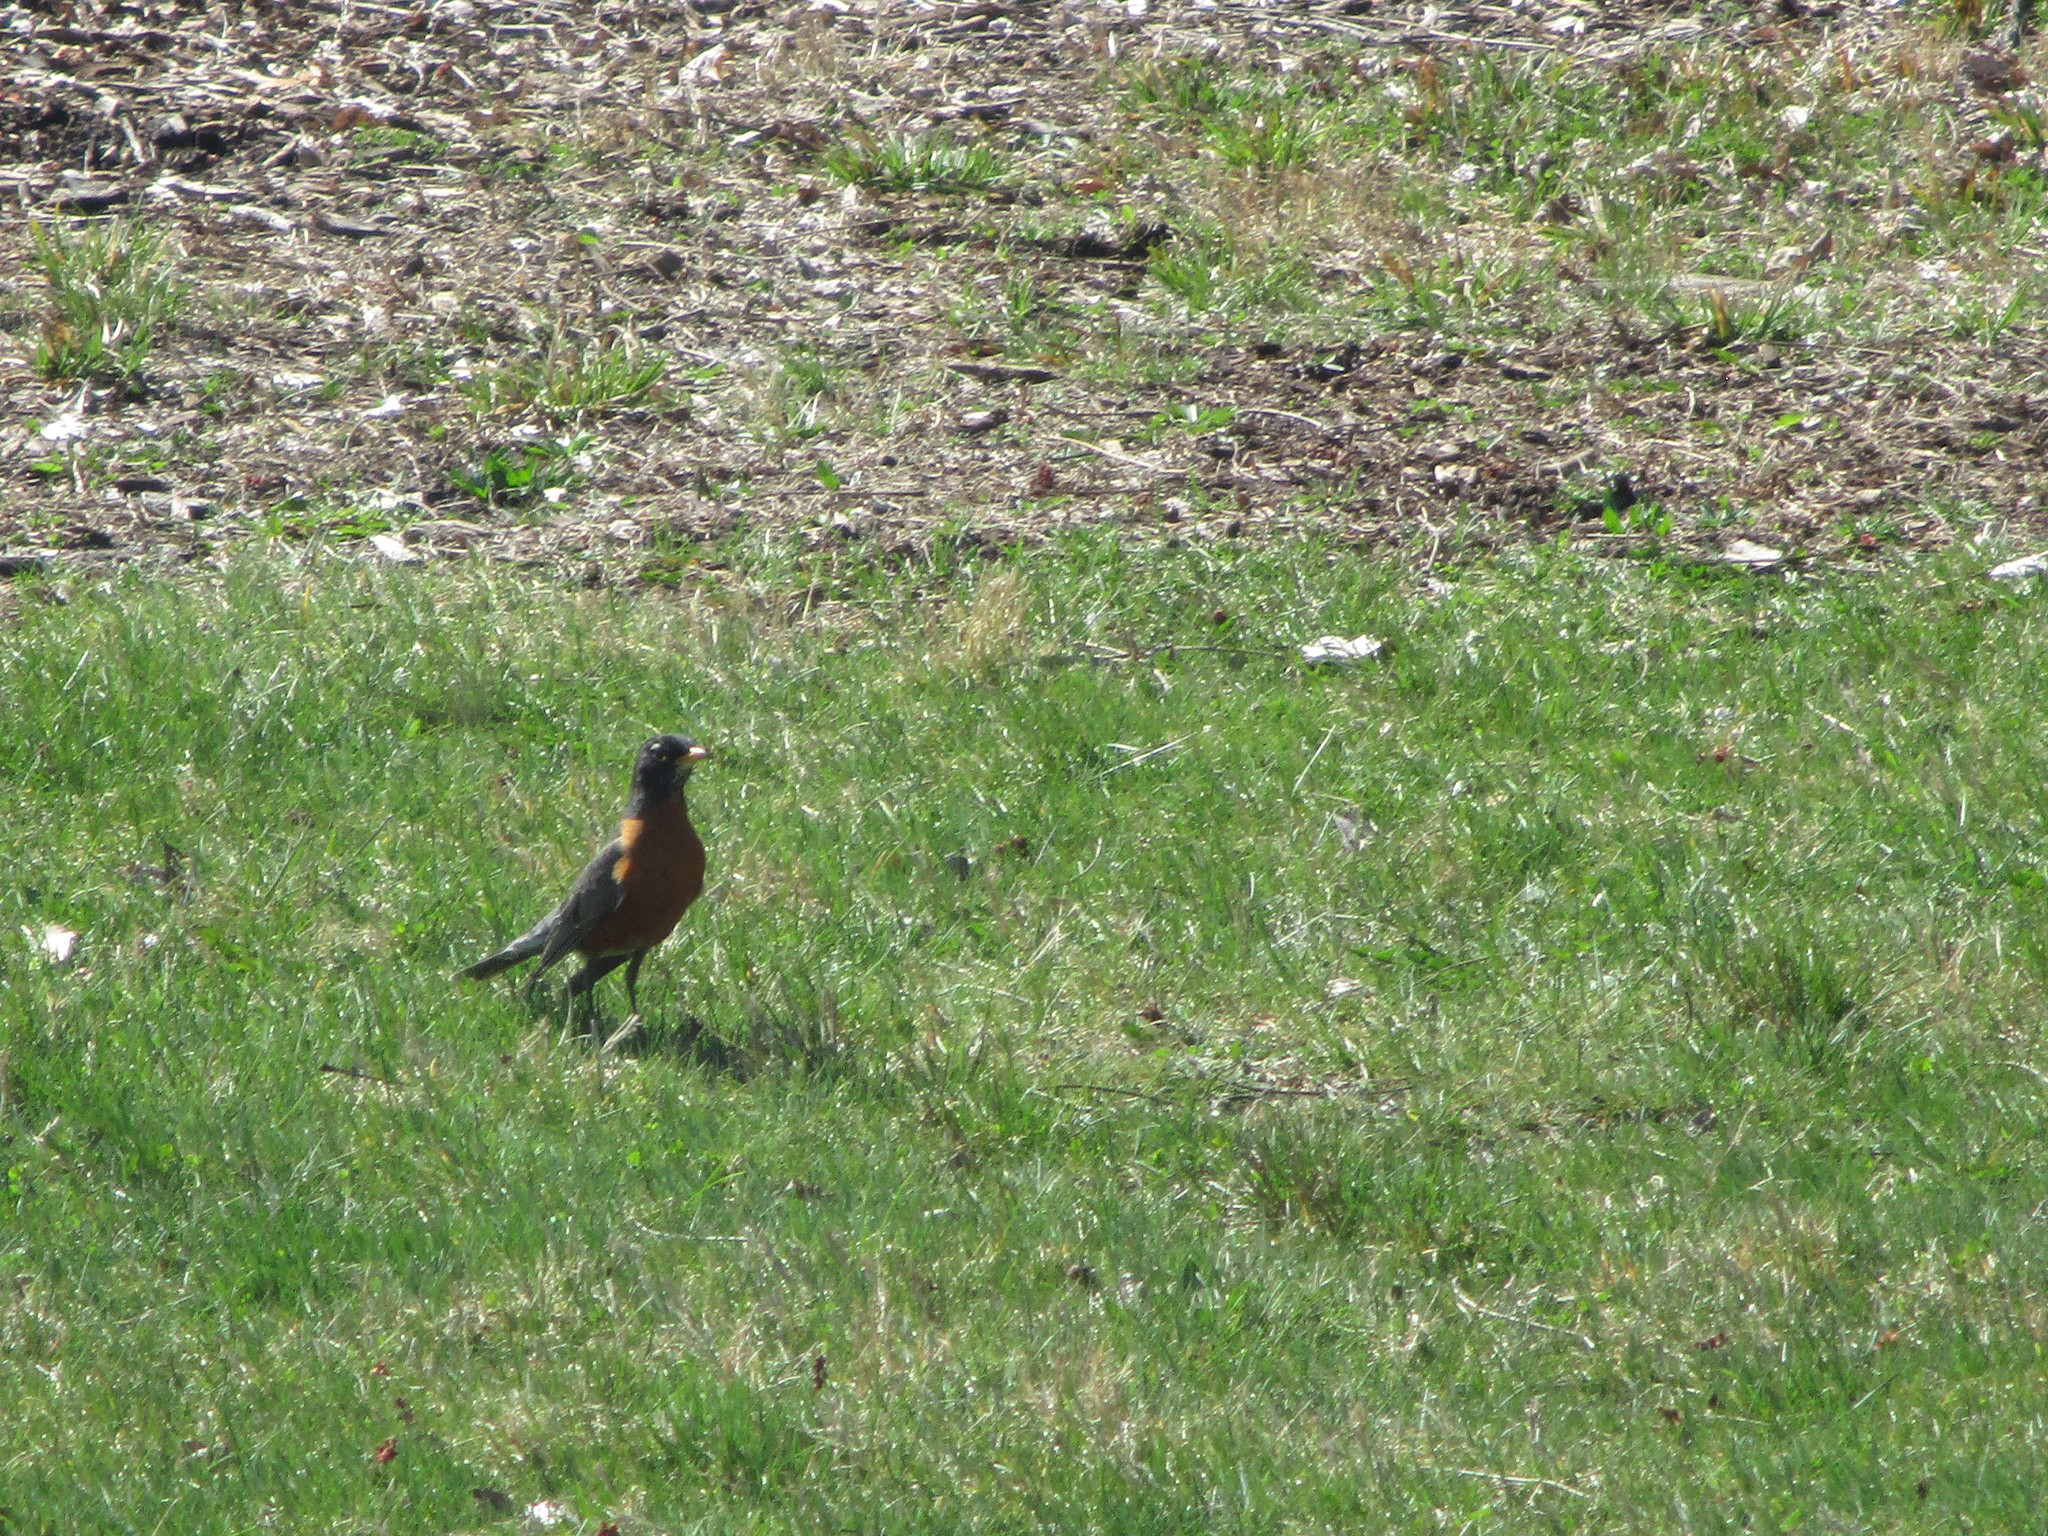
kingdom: Animalia
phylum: Chordata
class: Aves
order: Passeriformes
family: Turdidae
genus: Turdus
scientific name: Turdus migratorius
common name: American robin
